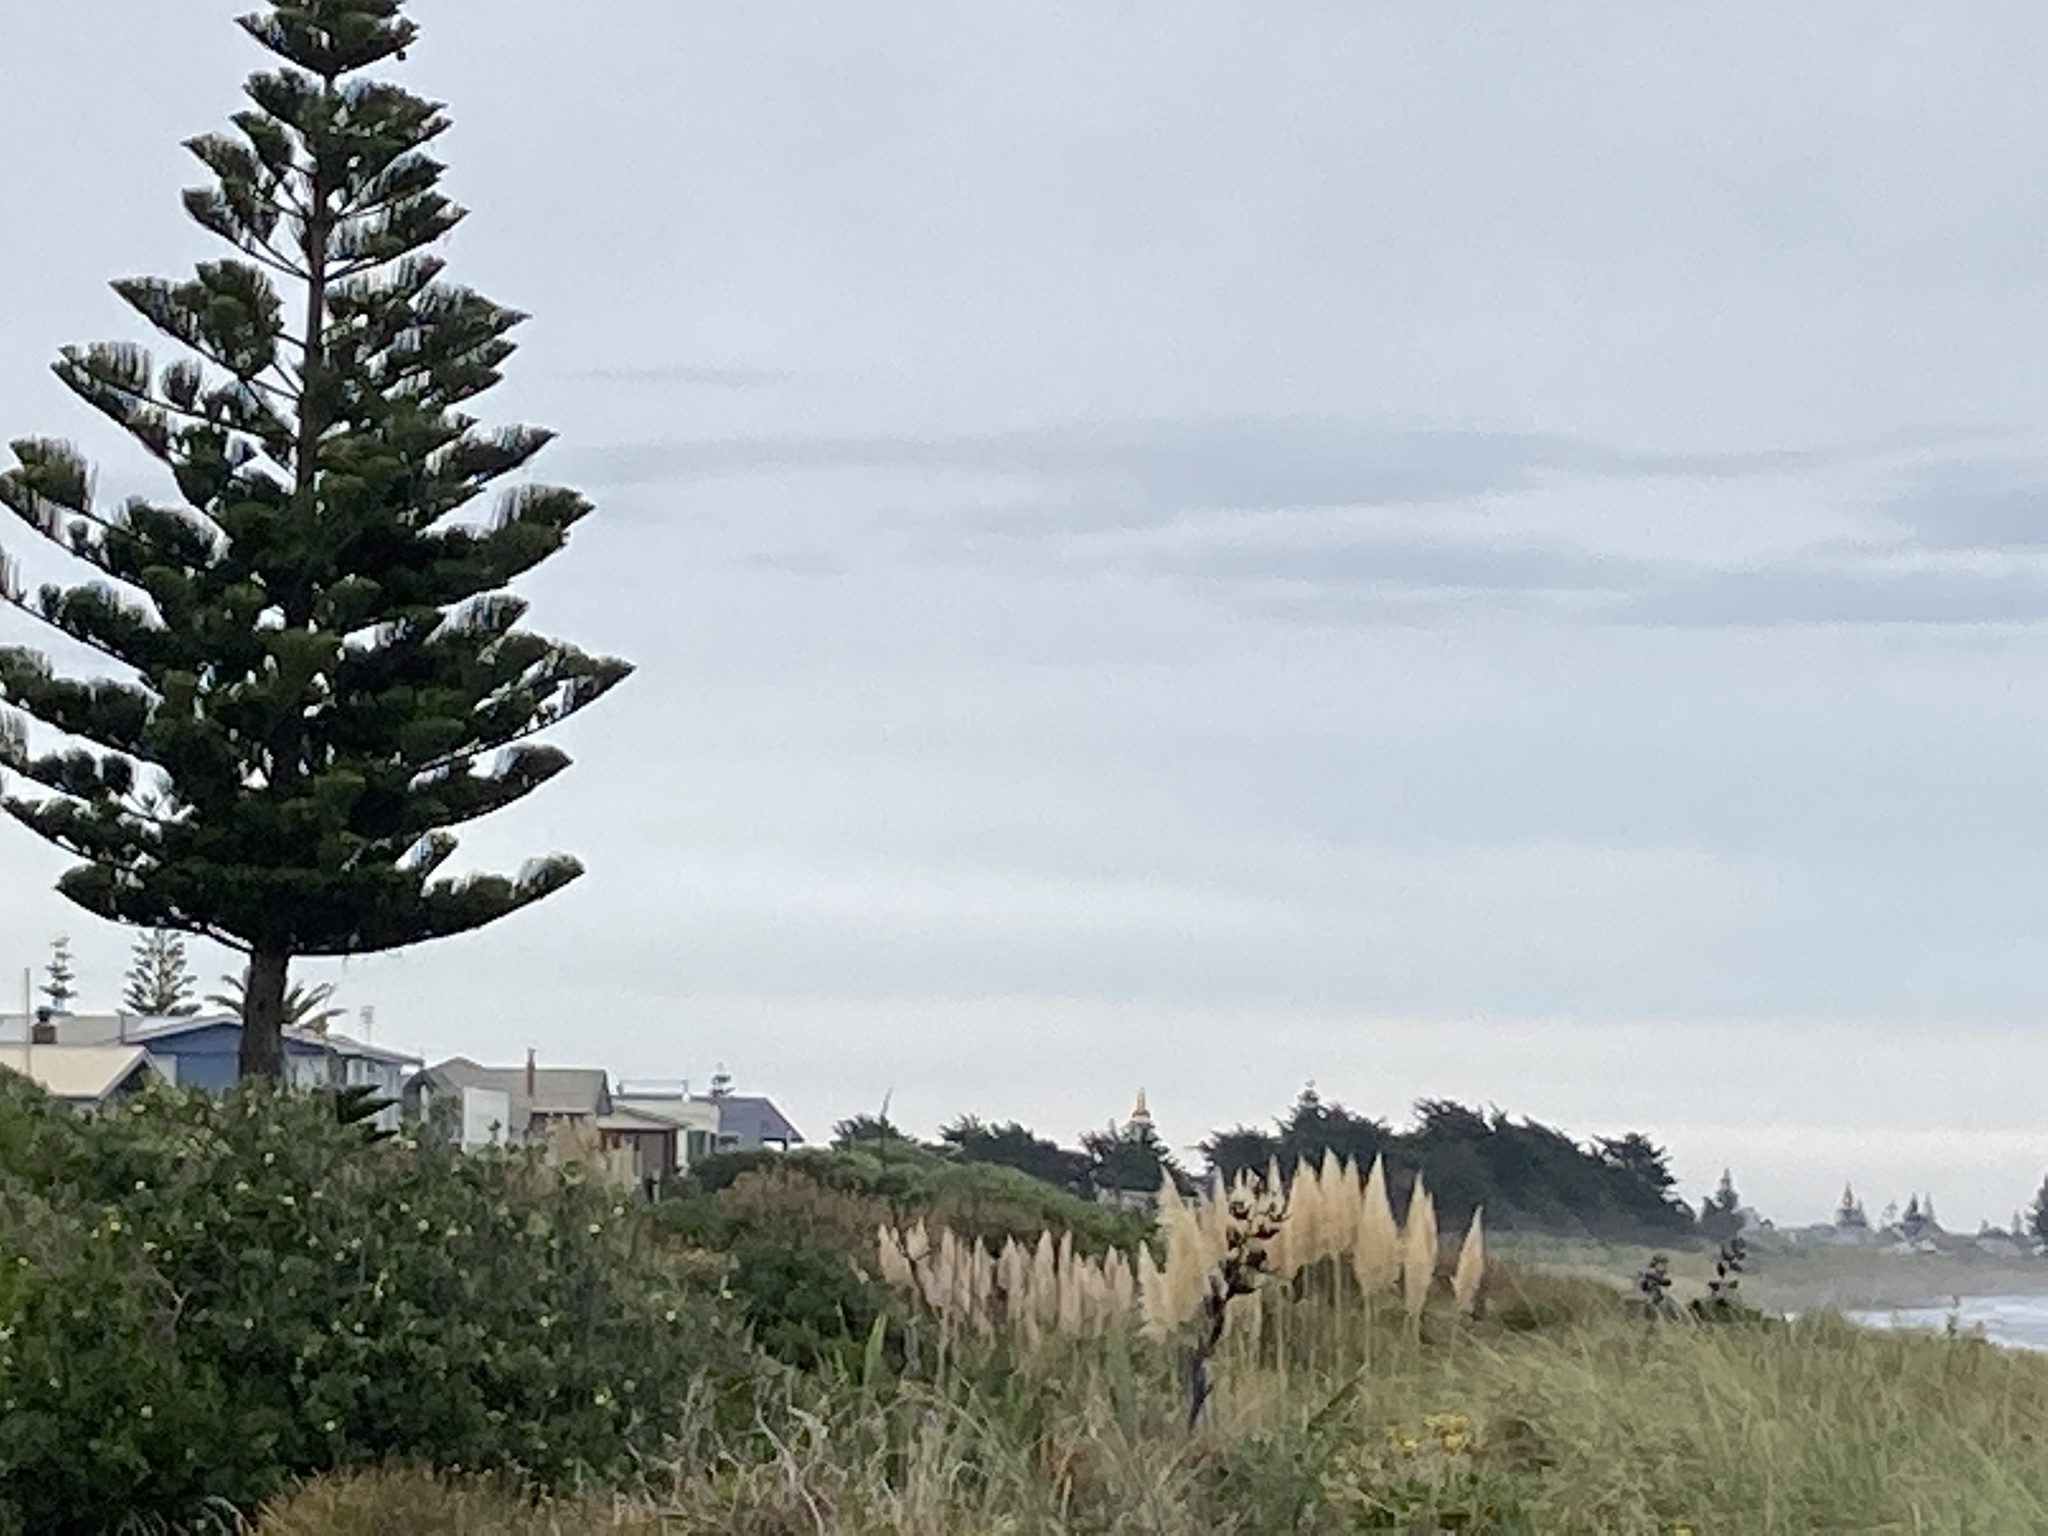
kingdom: Plantae
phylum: Tracheophyta
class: Liliopsida
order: Poales
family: Poaceae
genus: Cortaderia
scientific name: Cortaderia selloana
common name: Uruguayan pampas grass
